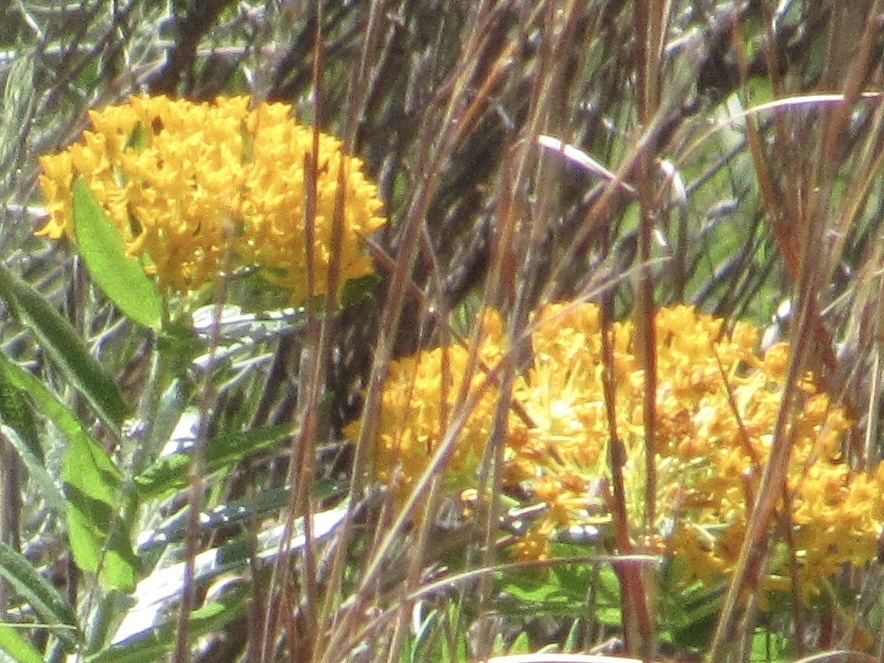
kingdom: Plantae
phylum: Tracheophyta
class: Magnoliopsida
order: Gentianales
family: Apocynaceae
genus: Asclepias
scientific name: Asclepias tuberosa
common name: Butterfly milkweed
